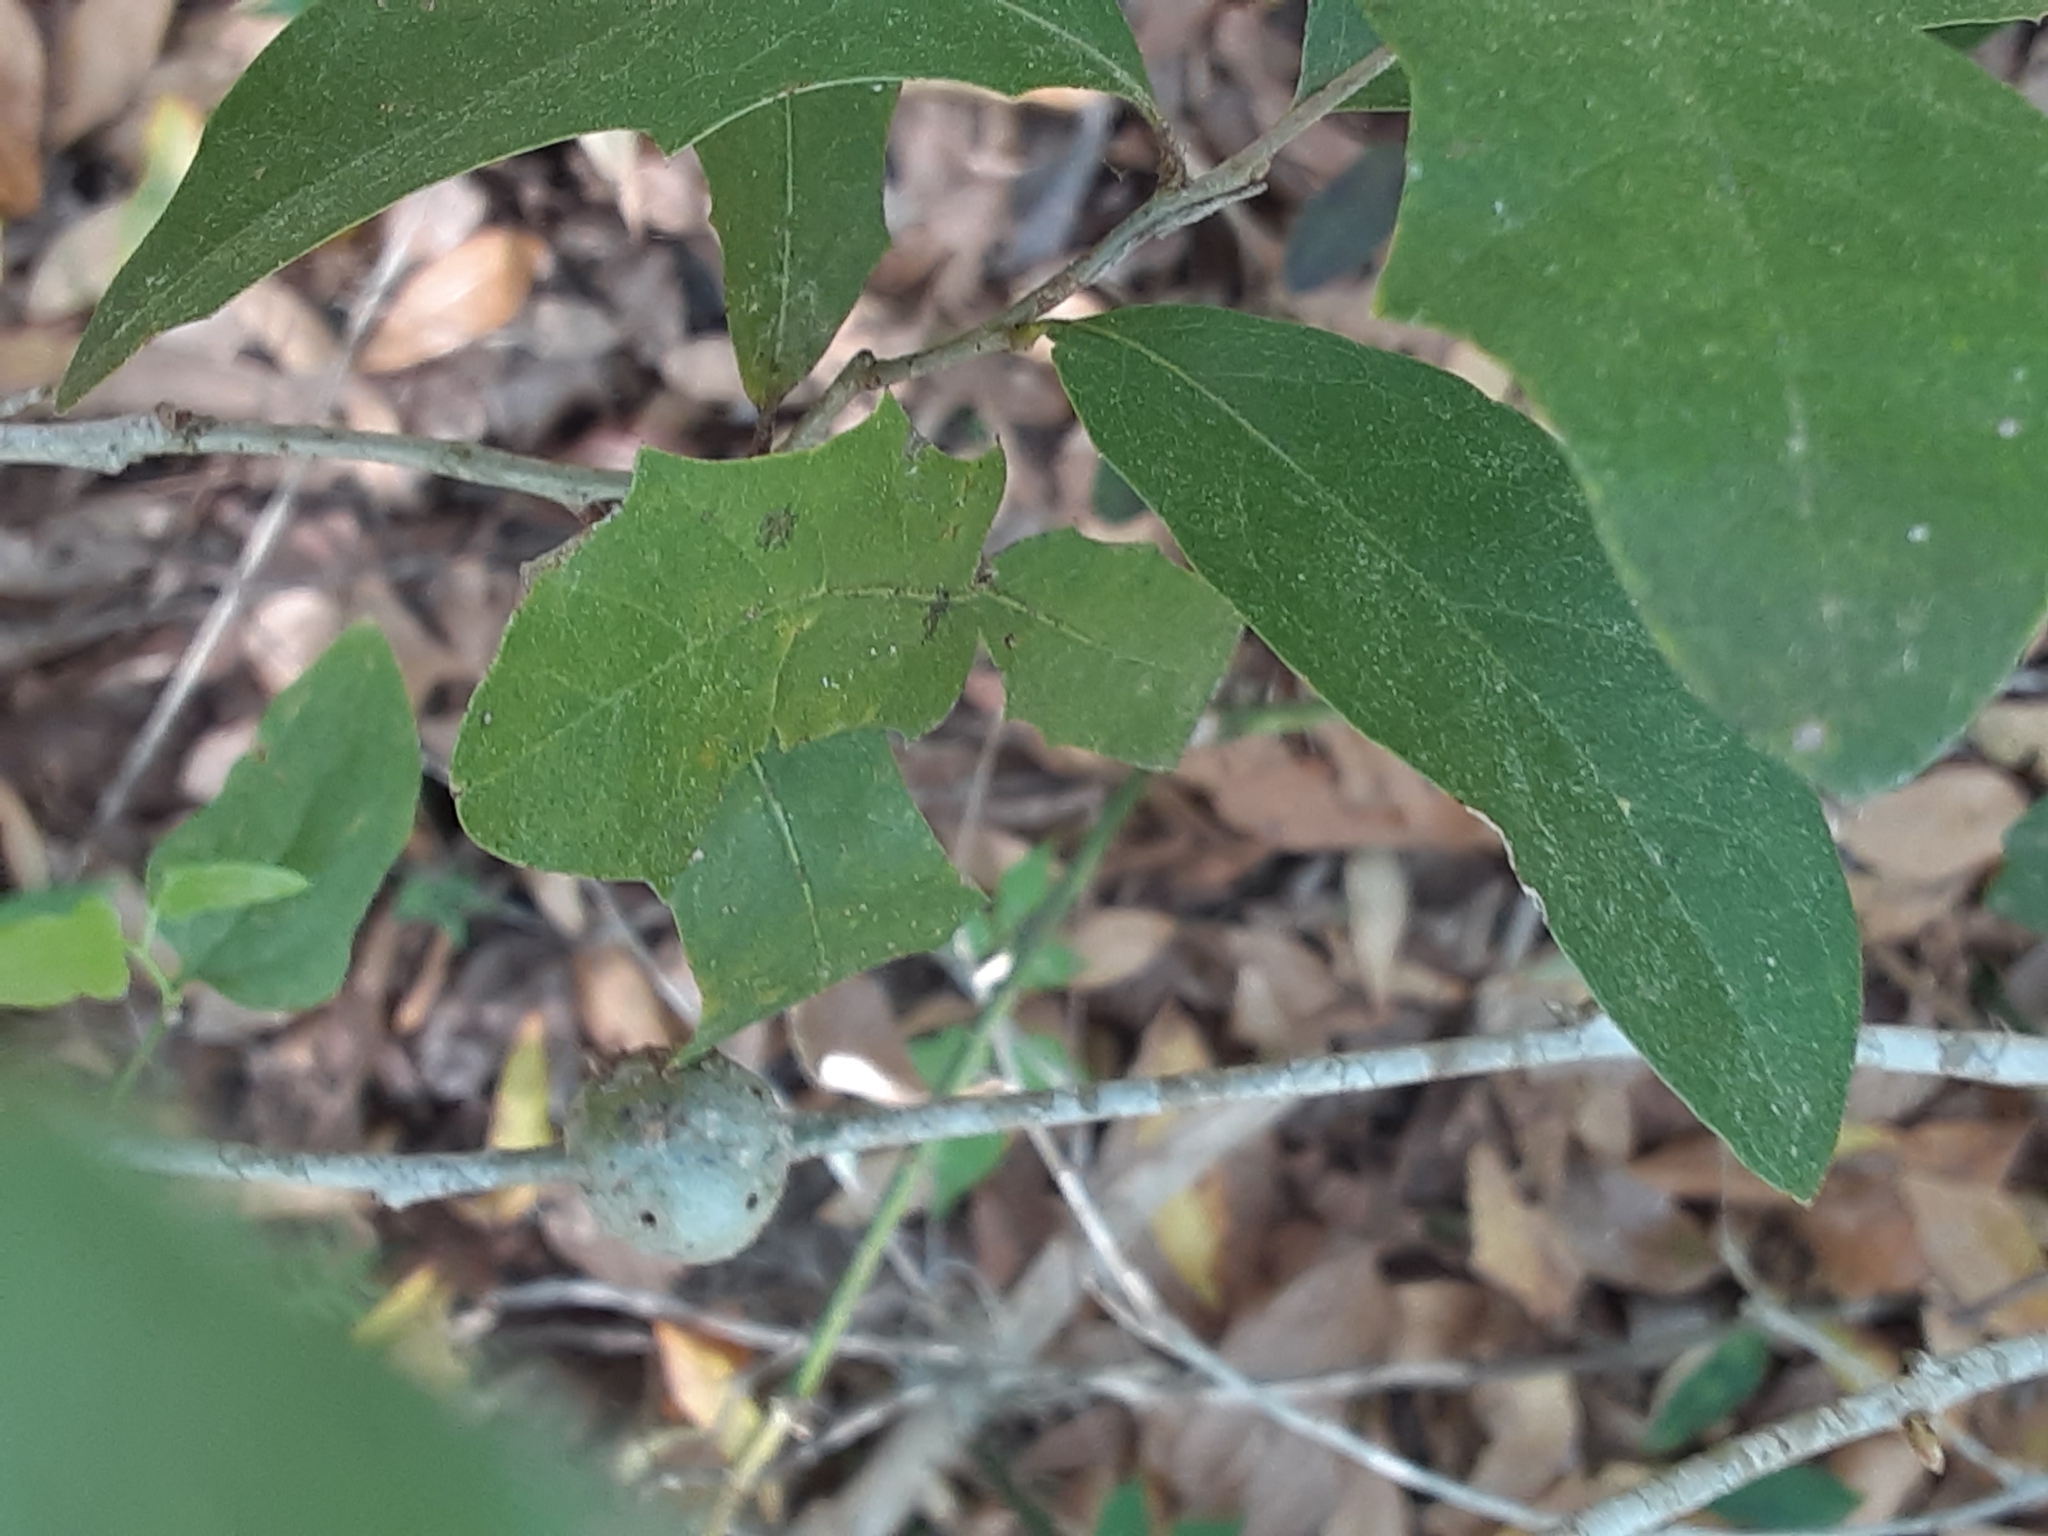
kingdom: Animalia
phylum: Arthropoda
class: Insecta
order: Hymenoptera
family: Cynipidae
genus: Callirhytis
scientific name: Callirhytis
